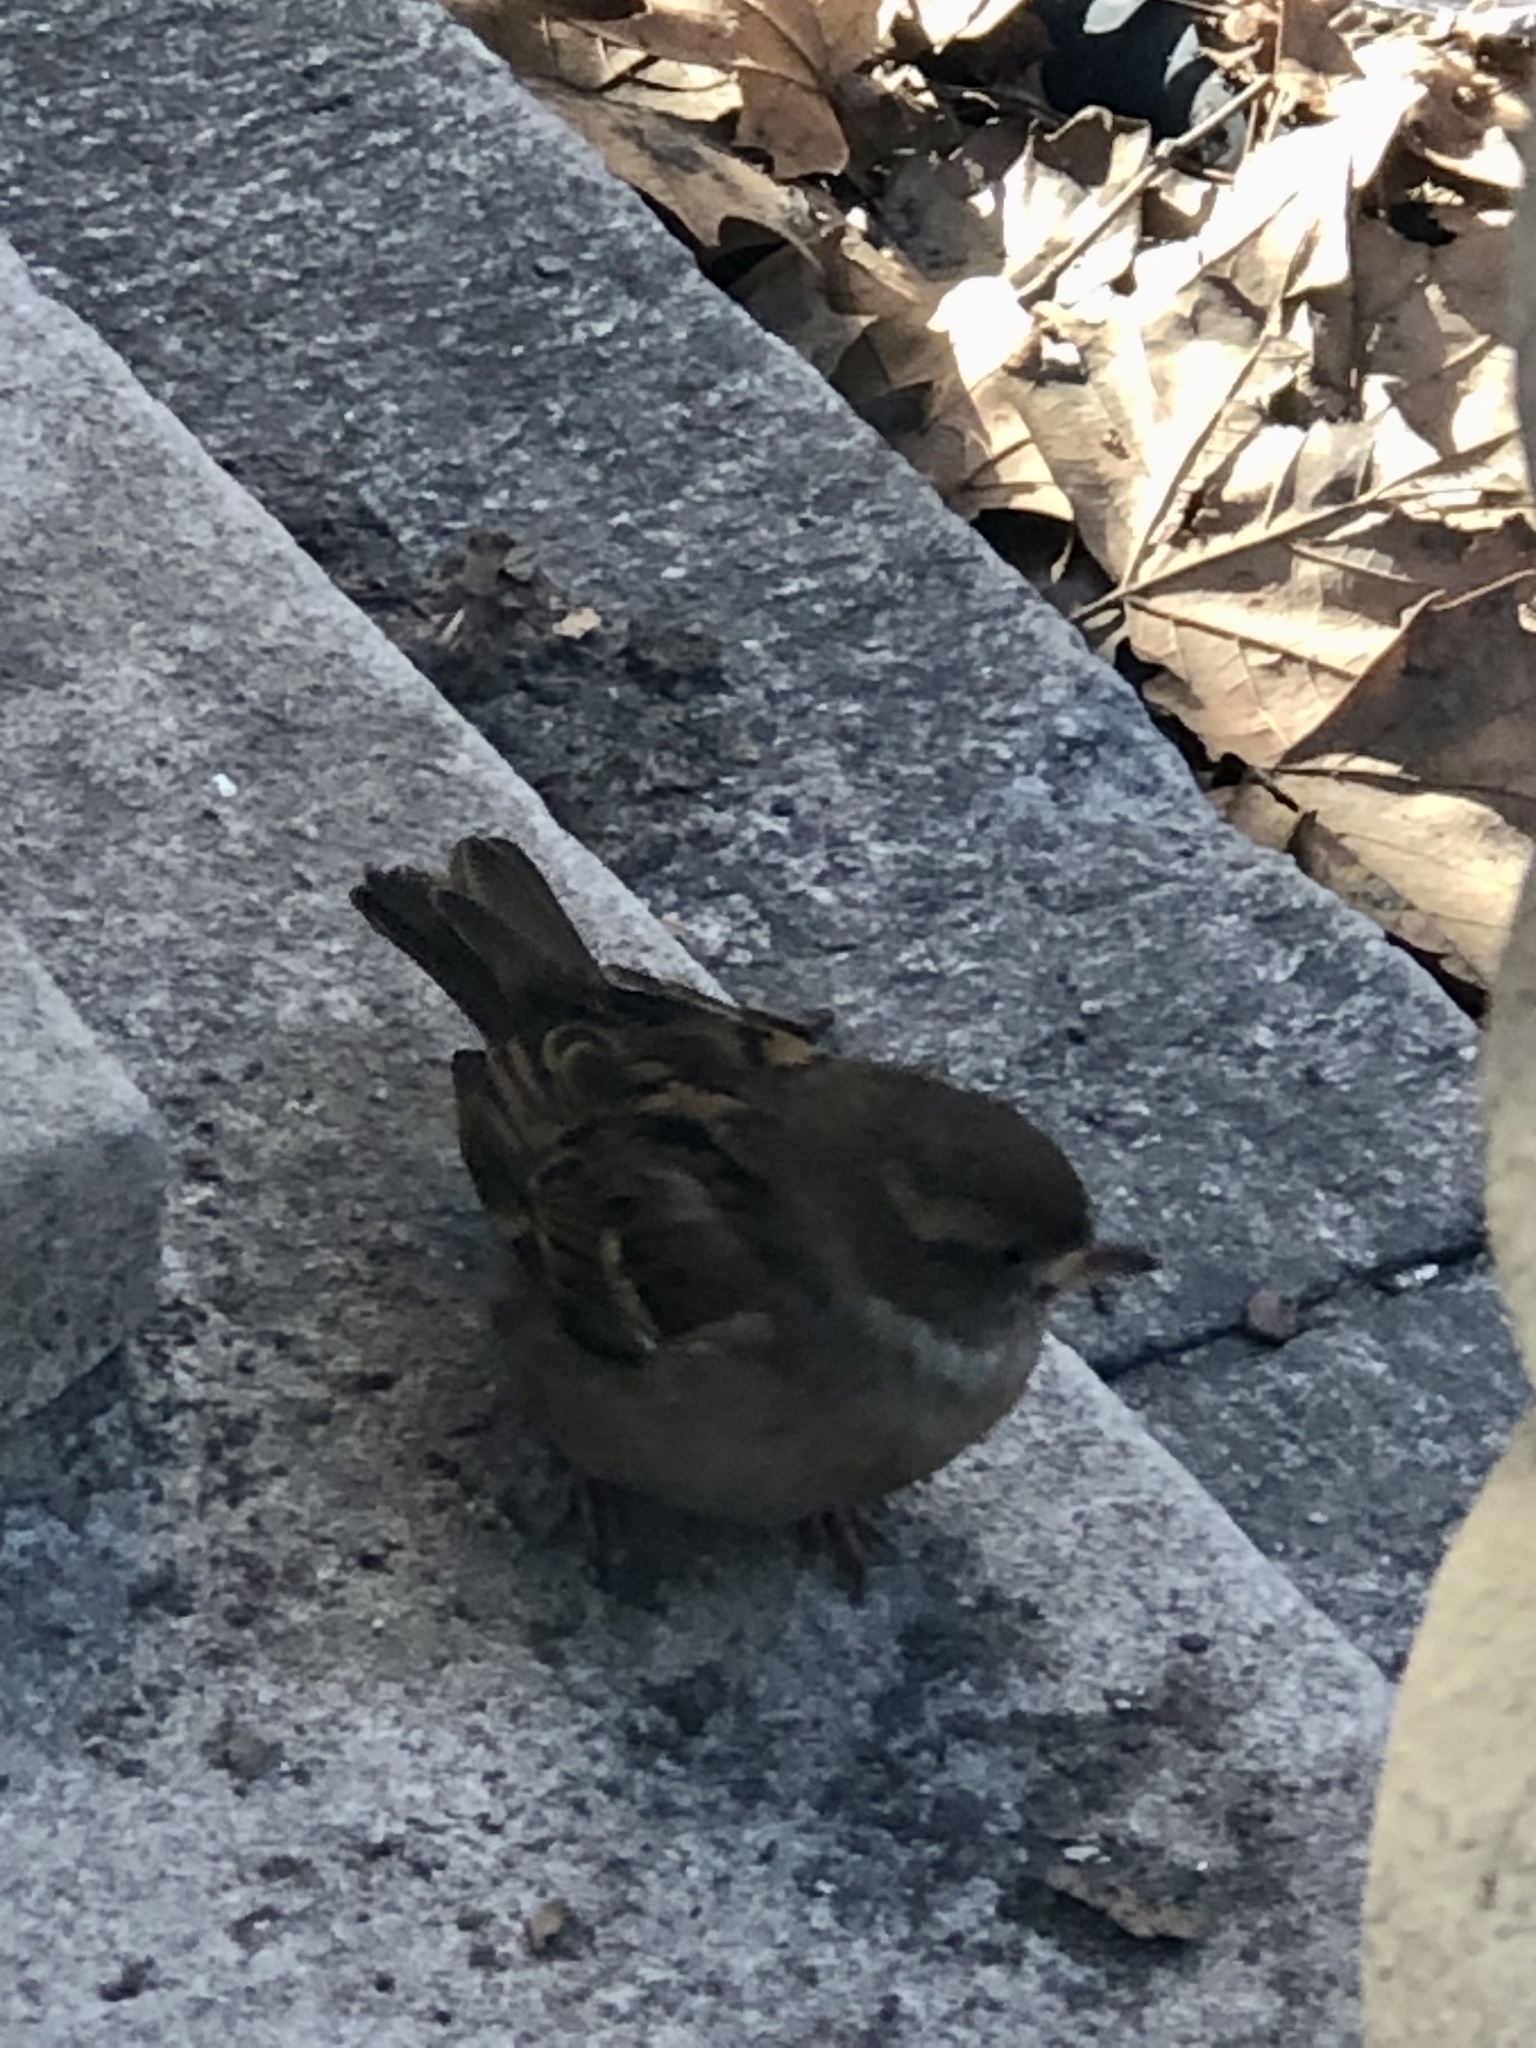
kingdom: Animalia
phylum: Chordata
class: Aves
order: Passeriformes
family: Passeridae
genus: Passer
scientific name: Passer domesticus
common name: House sparrow
